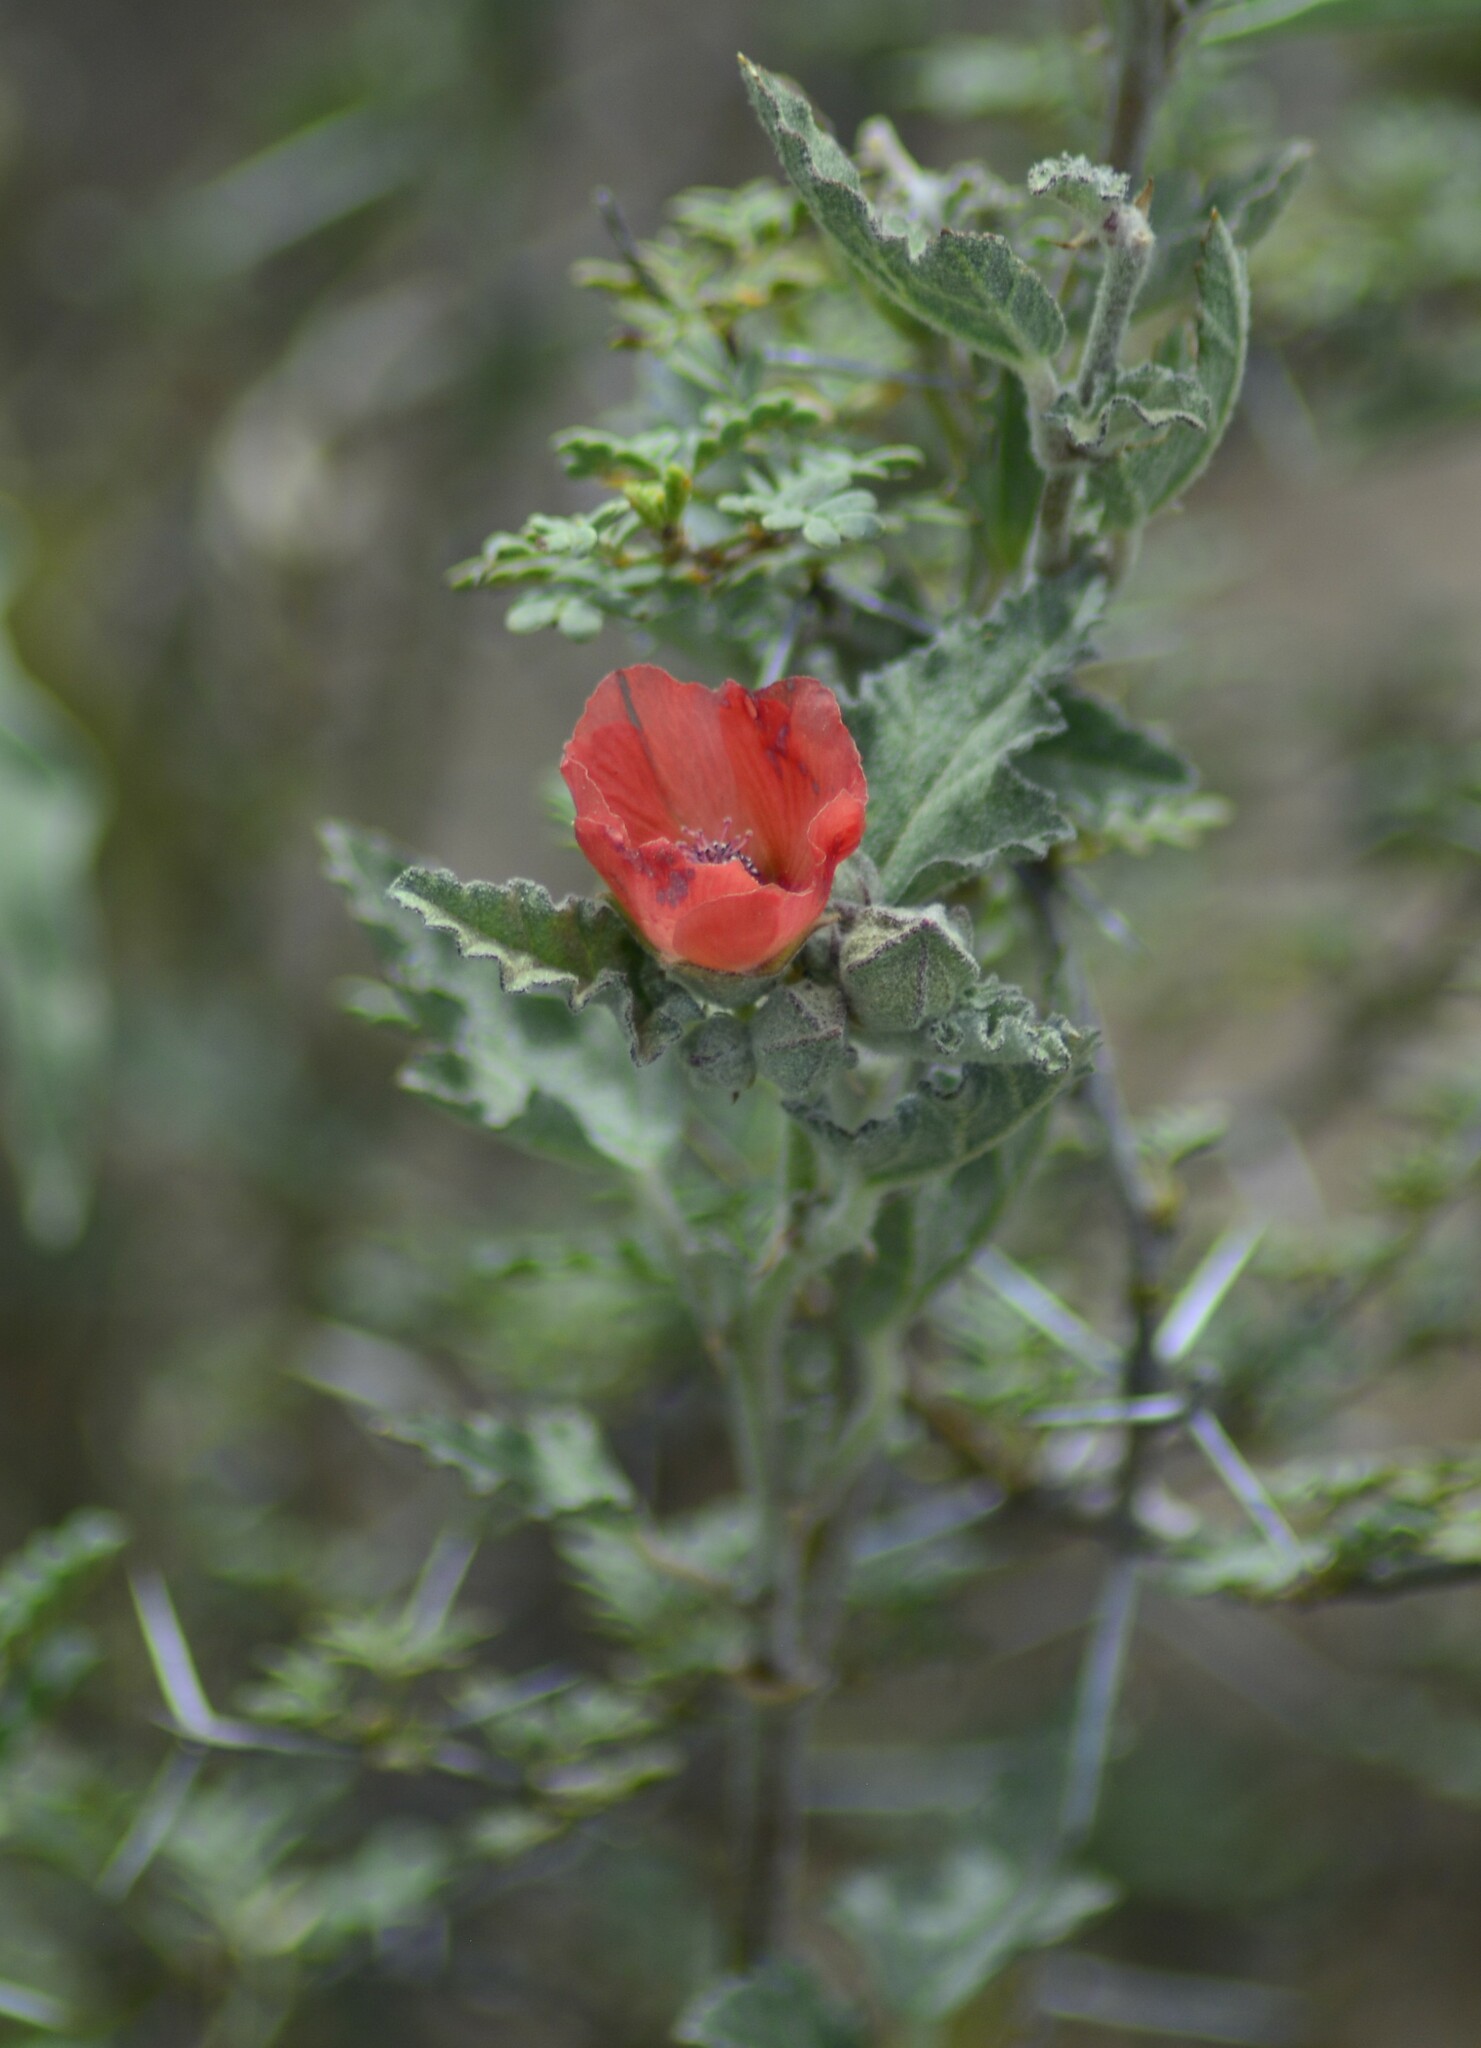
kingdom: Plantae
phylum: Tracheophyta
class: Magnoliopsida
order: Malvales
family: Malvaceae
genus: Sphaeralcea
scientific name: Sphaeralcea miniata
